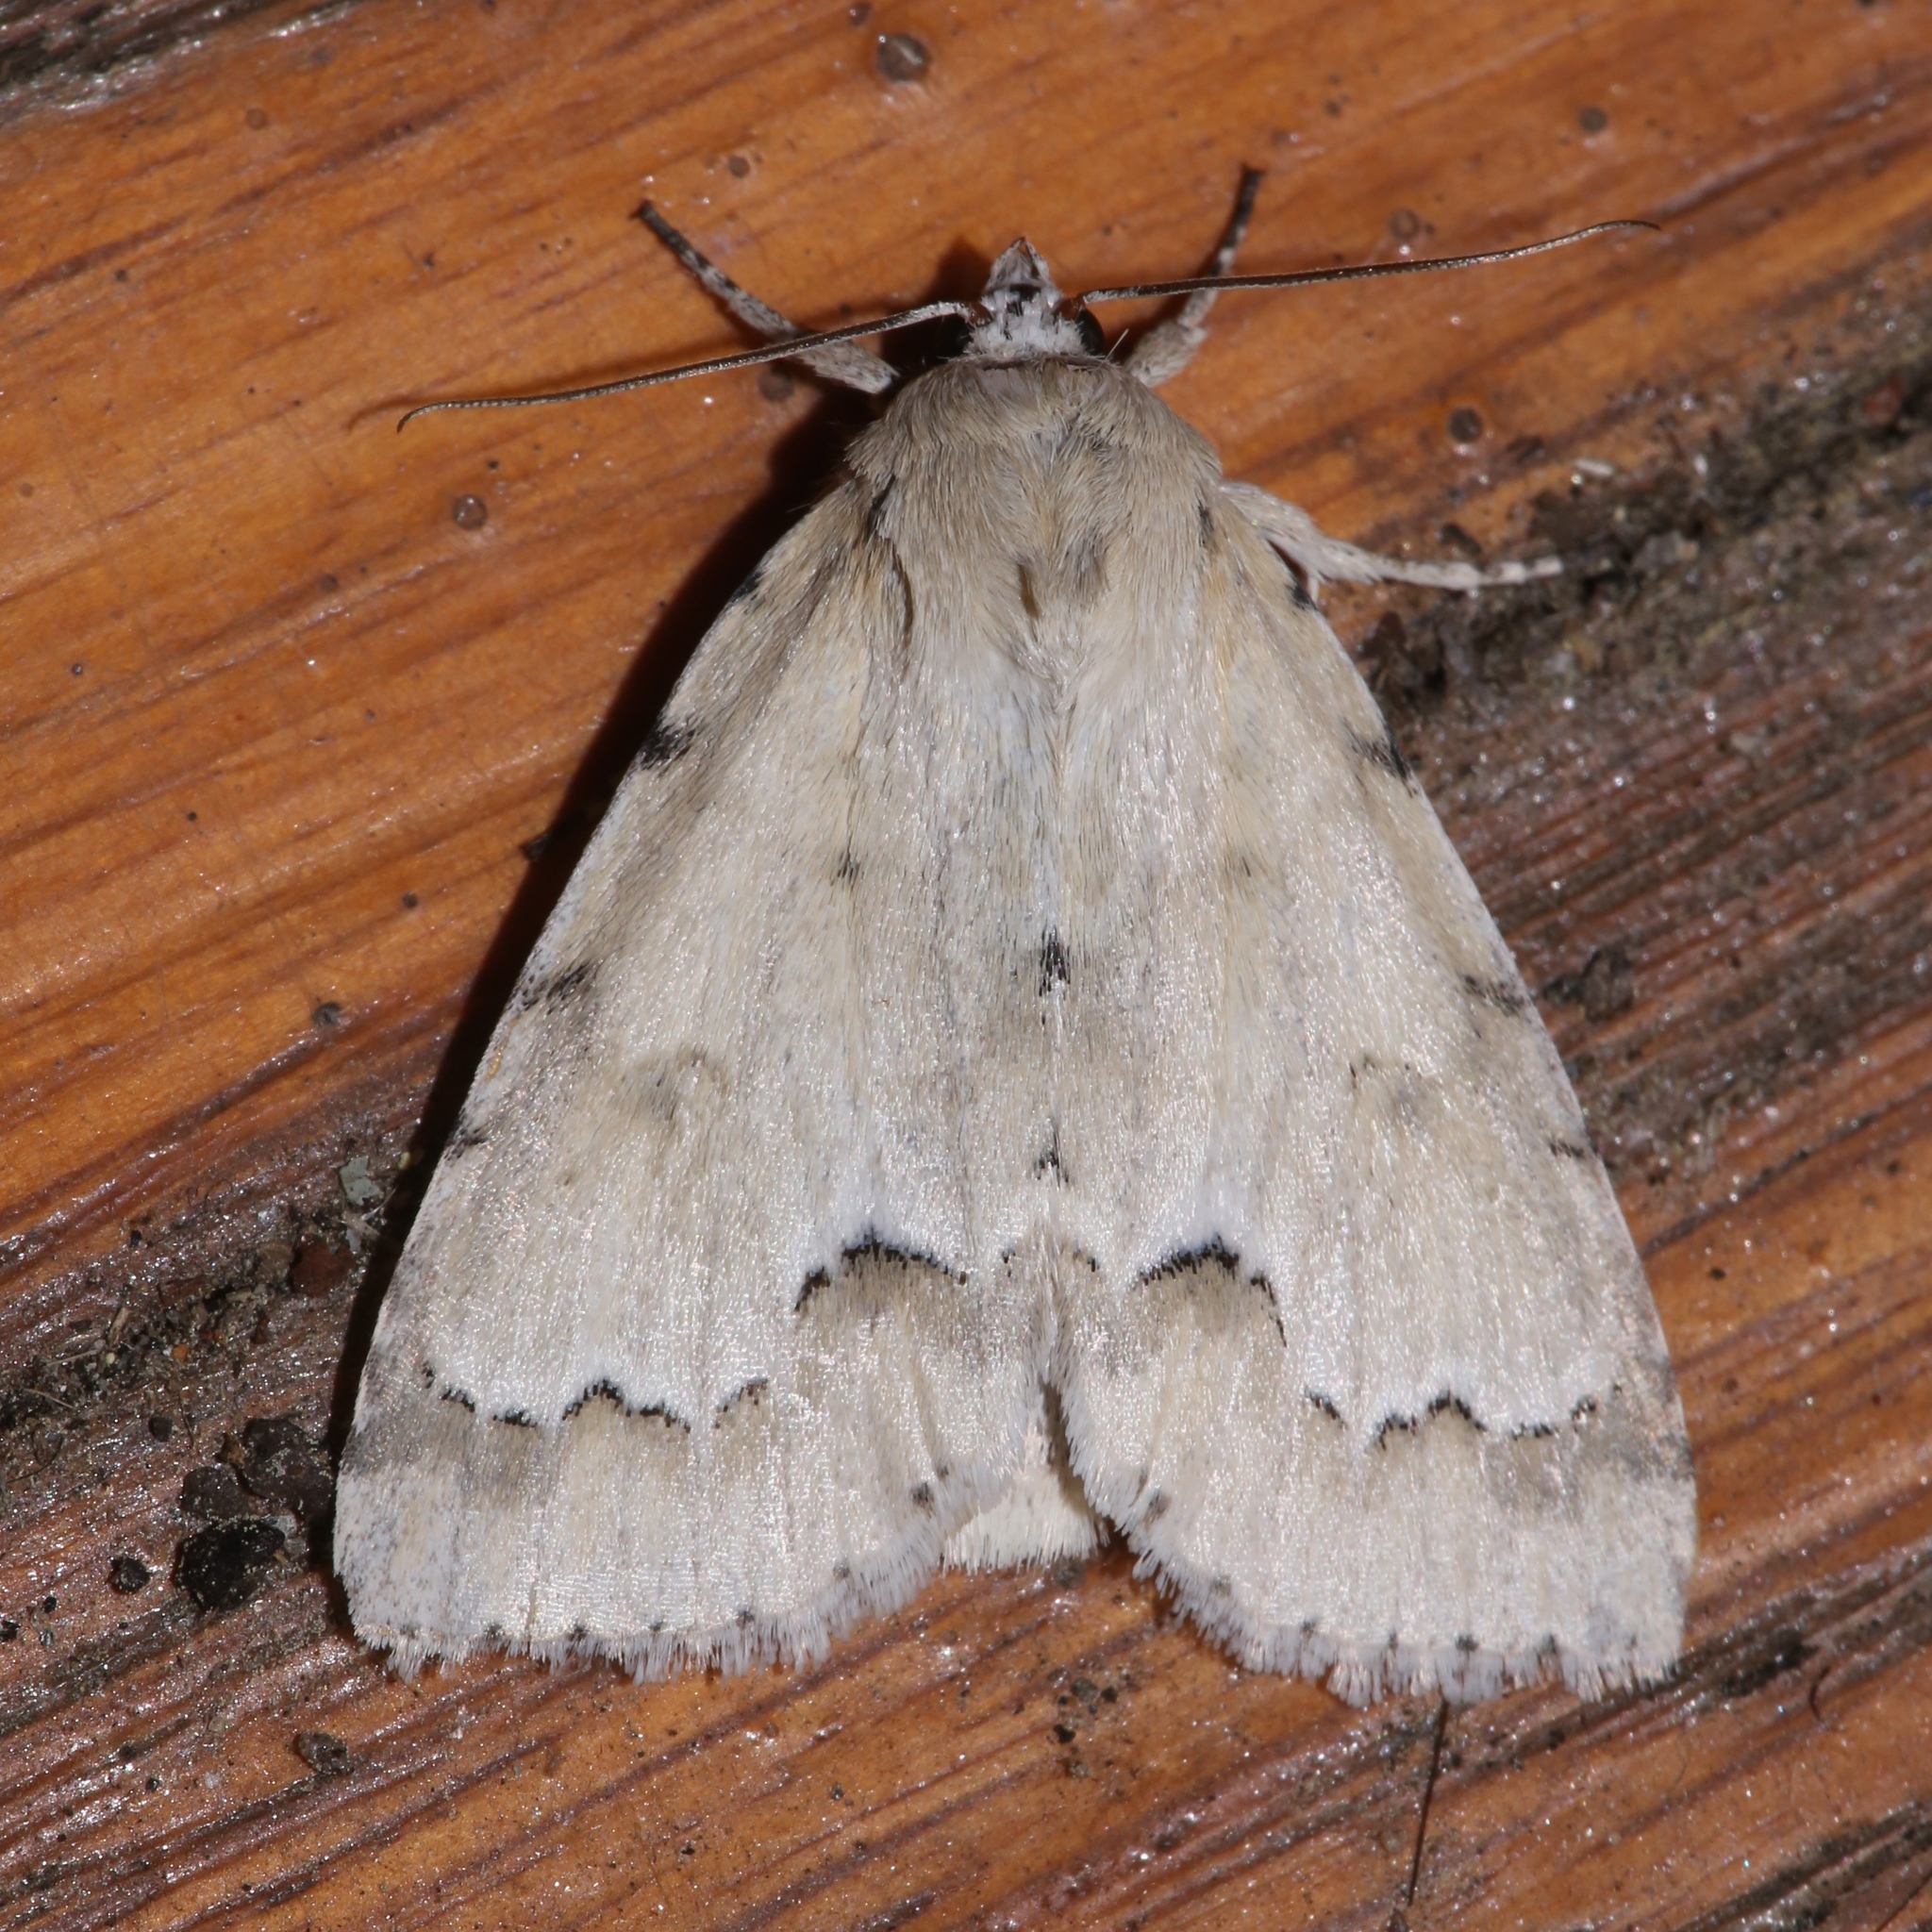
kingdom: Animalia
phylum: Arthropoda
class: Insecta
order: Lepidoptera
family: Noctuidae
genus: Acronicta
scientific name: Acronicta innotata
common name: Unmarked dagger
